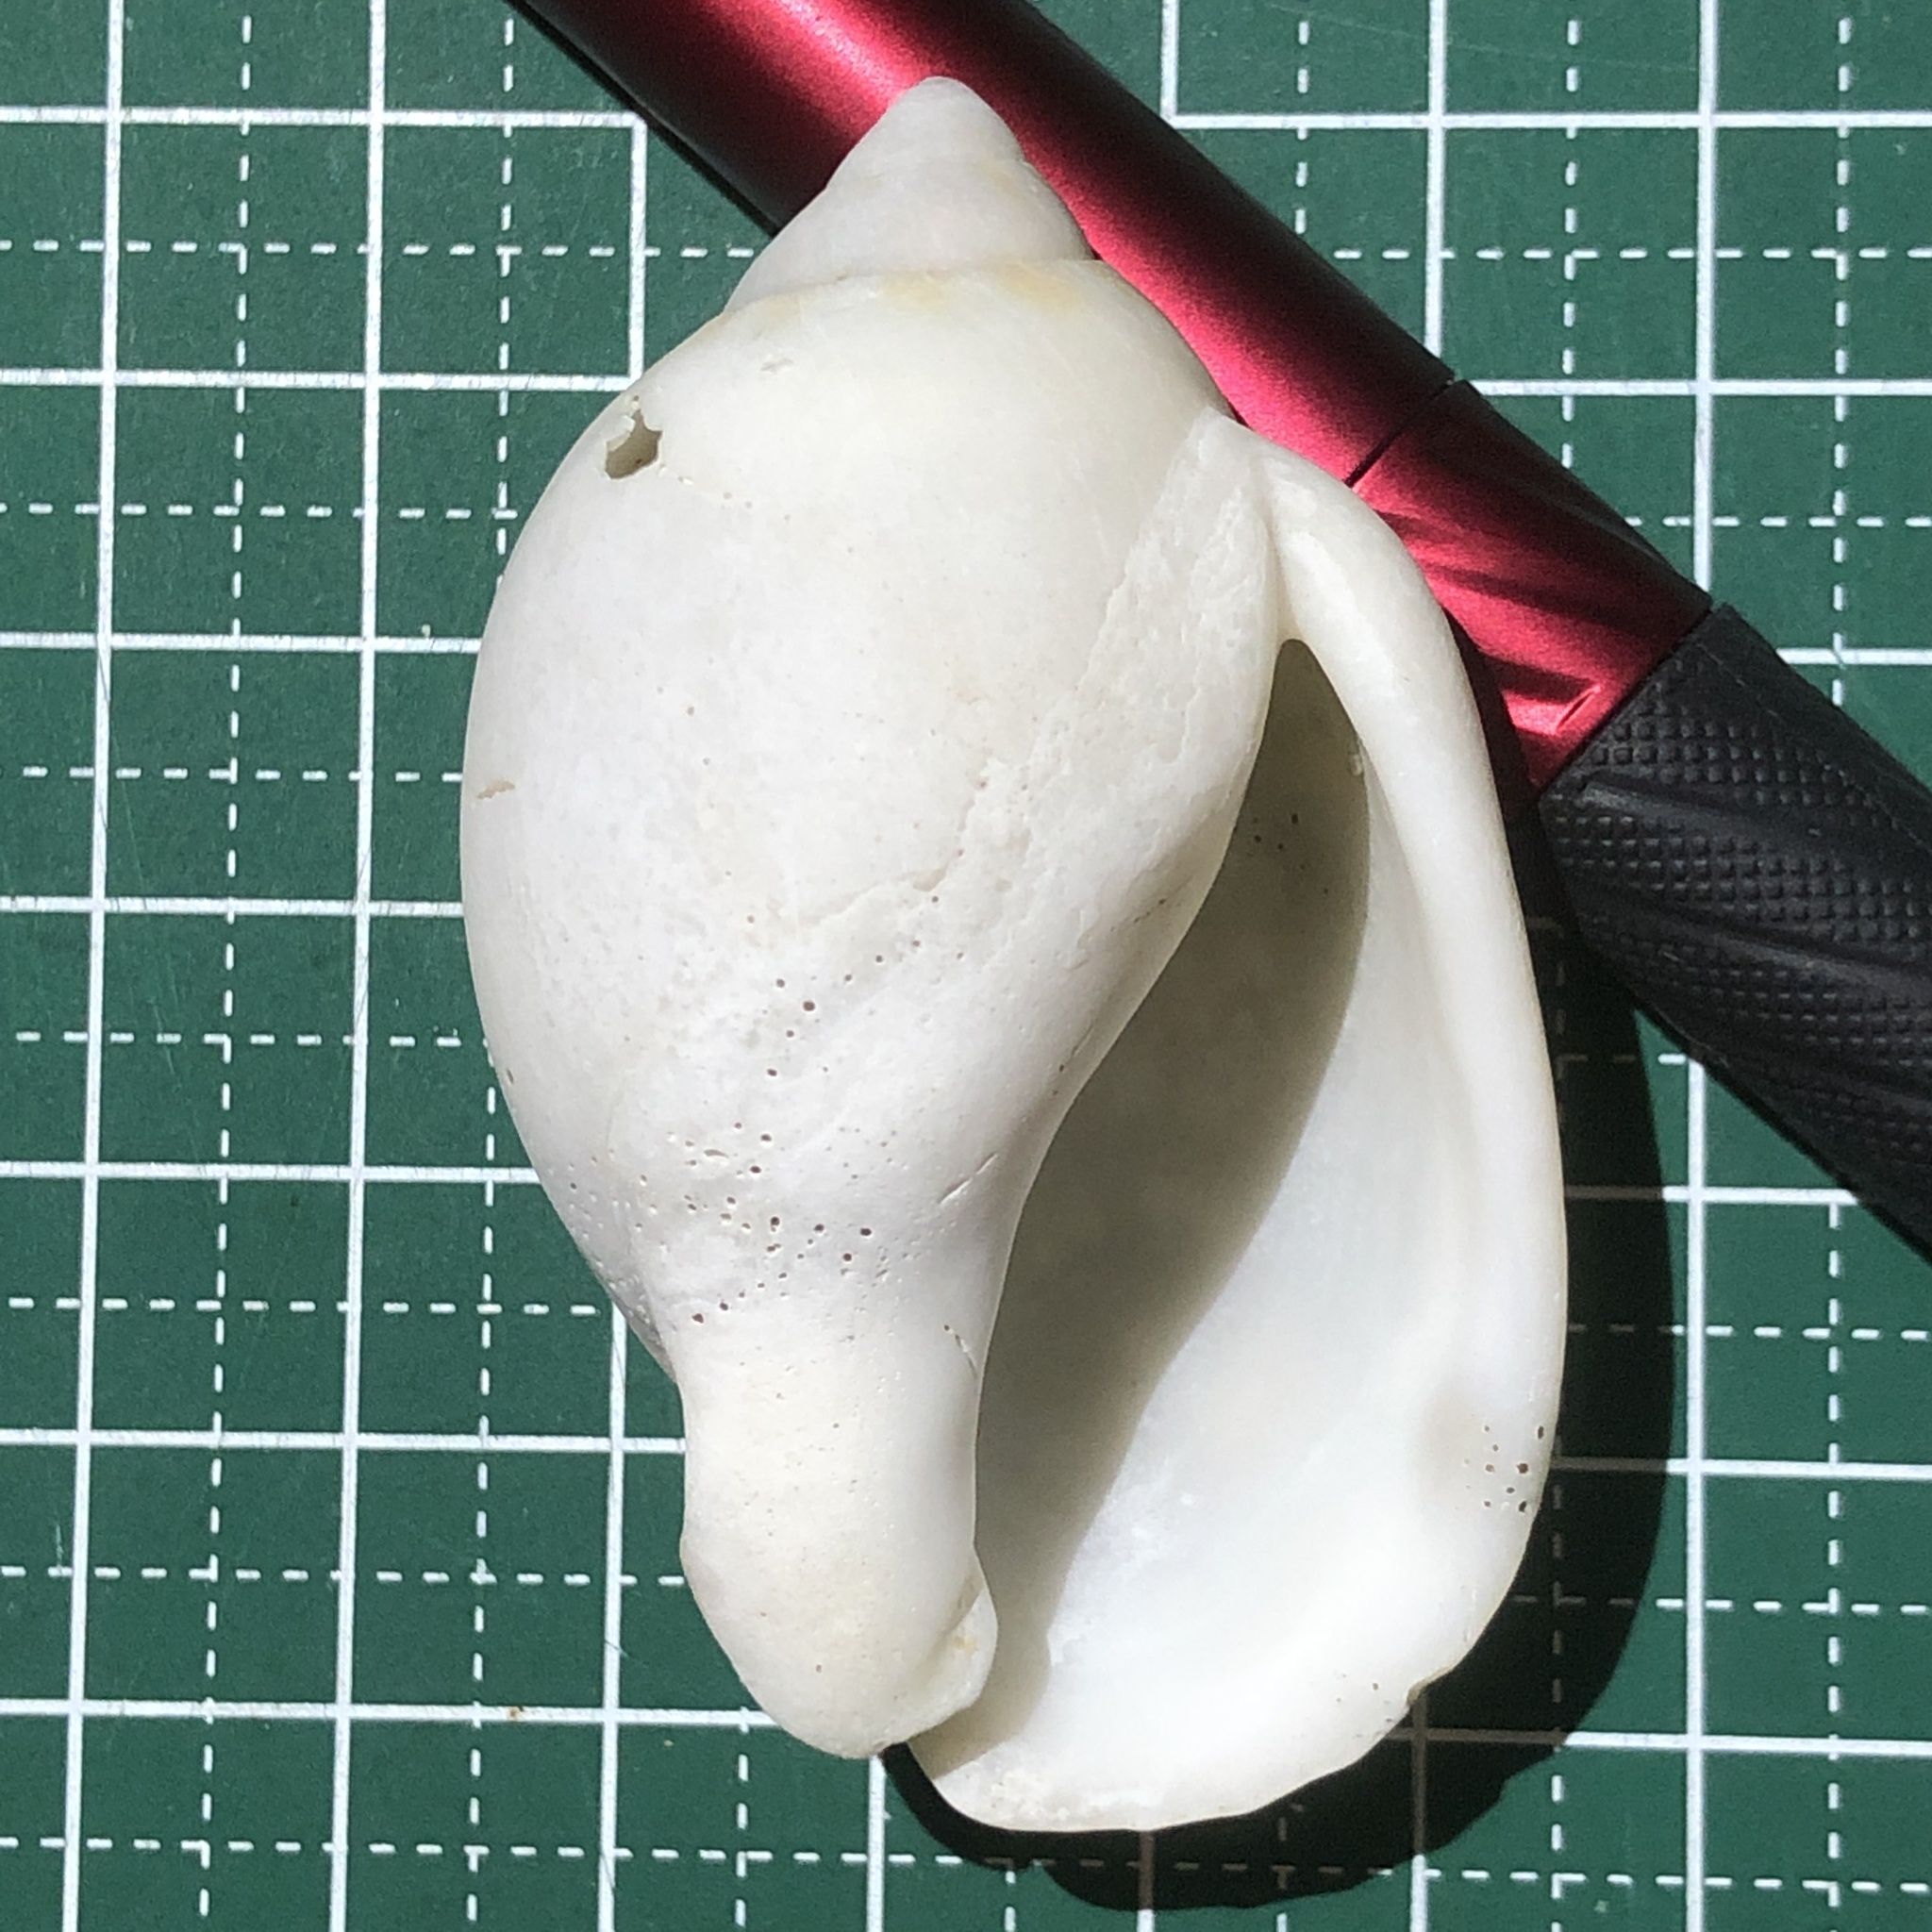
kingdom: Animalia
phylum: Mollusca
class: Gastropoda
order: Littorinimorpha
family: Cassidae
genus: Casmaria
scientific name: Casmaria erinaceus
